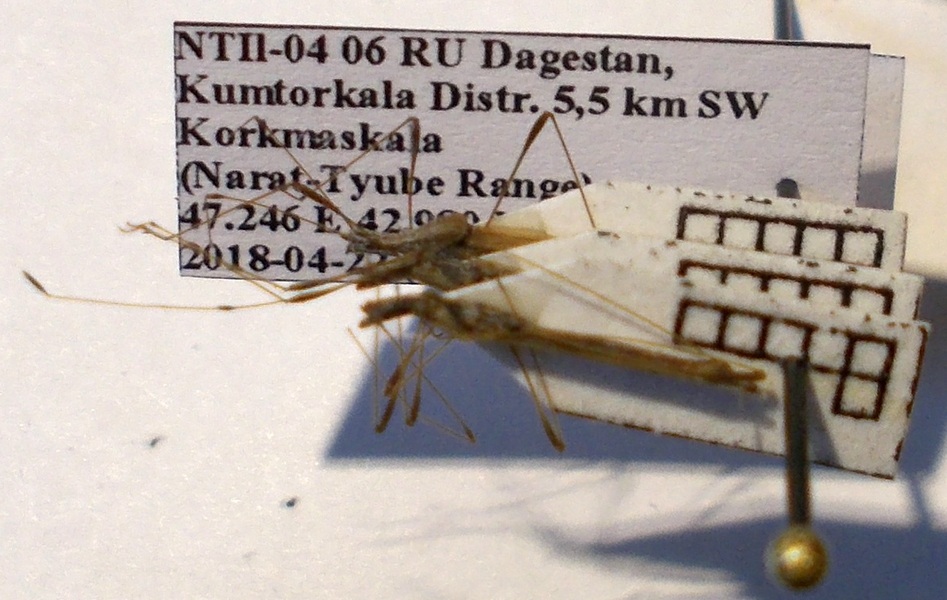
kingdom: Animalia
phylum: Arthropoda
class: Insecta
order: Hemiptera
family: Berytidae
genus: Neides
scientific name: Neides tipularius
